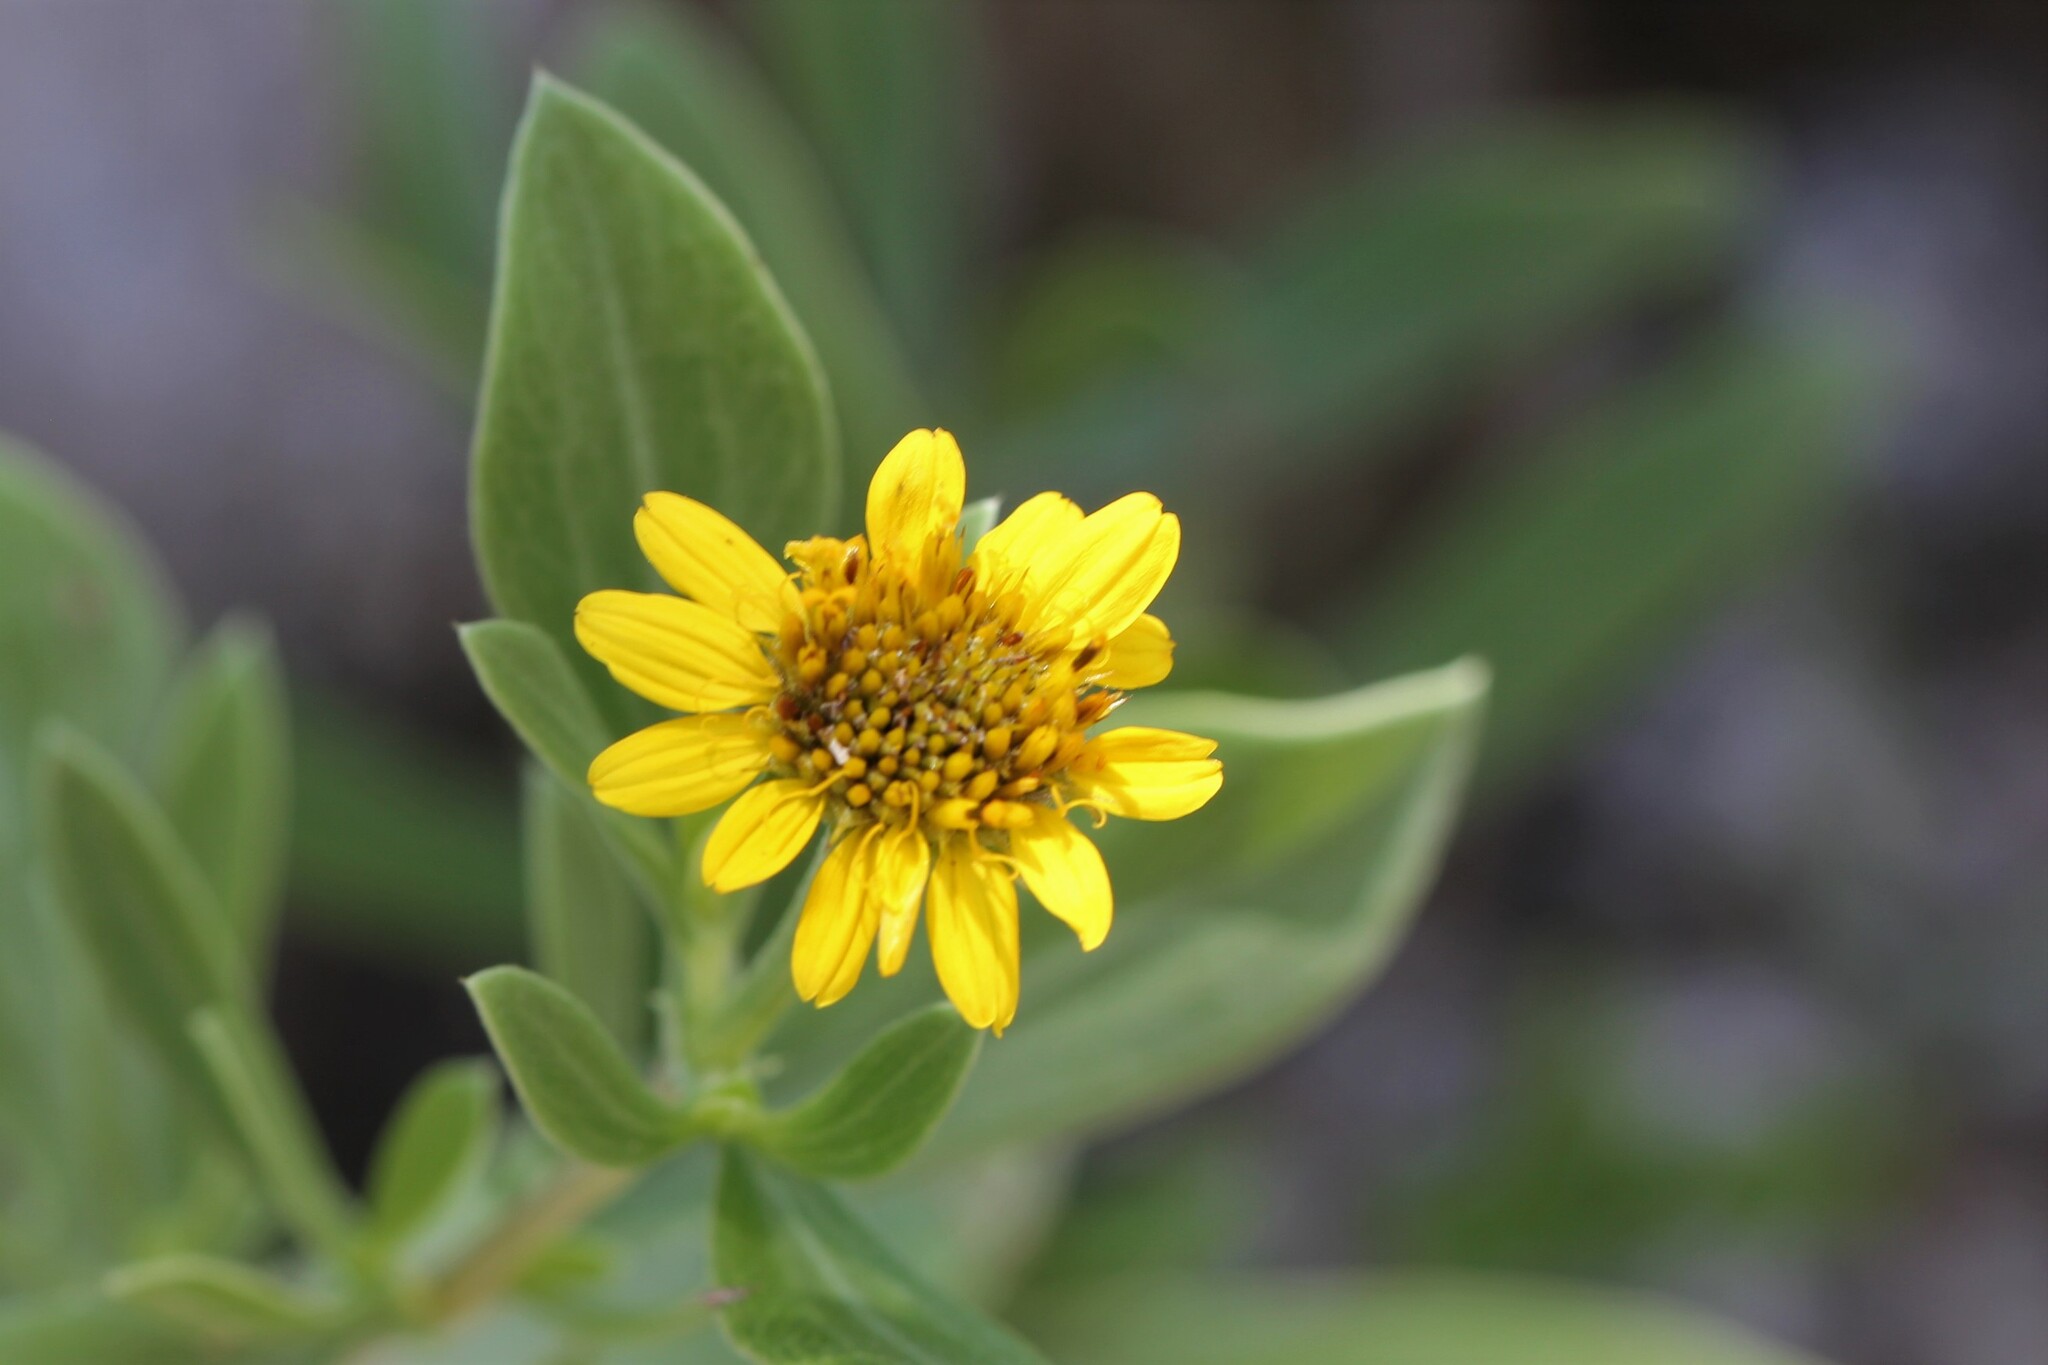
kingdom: Plantae
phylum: Tracheophyta
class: Magnoliopsida
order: Asterales
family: Asteraceae
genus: Borrichia
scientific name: Borrichia frutescens
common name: Sea oxeye
